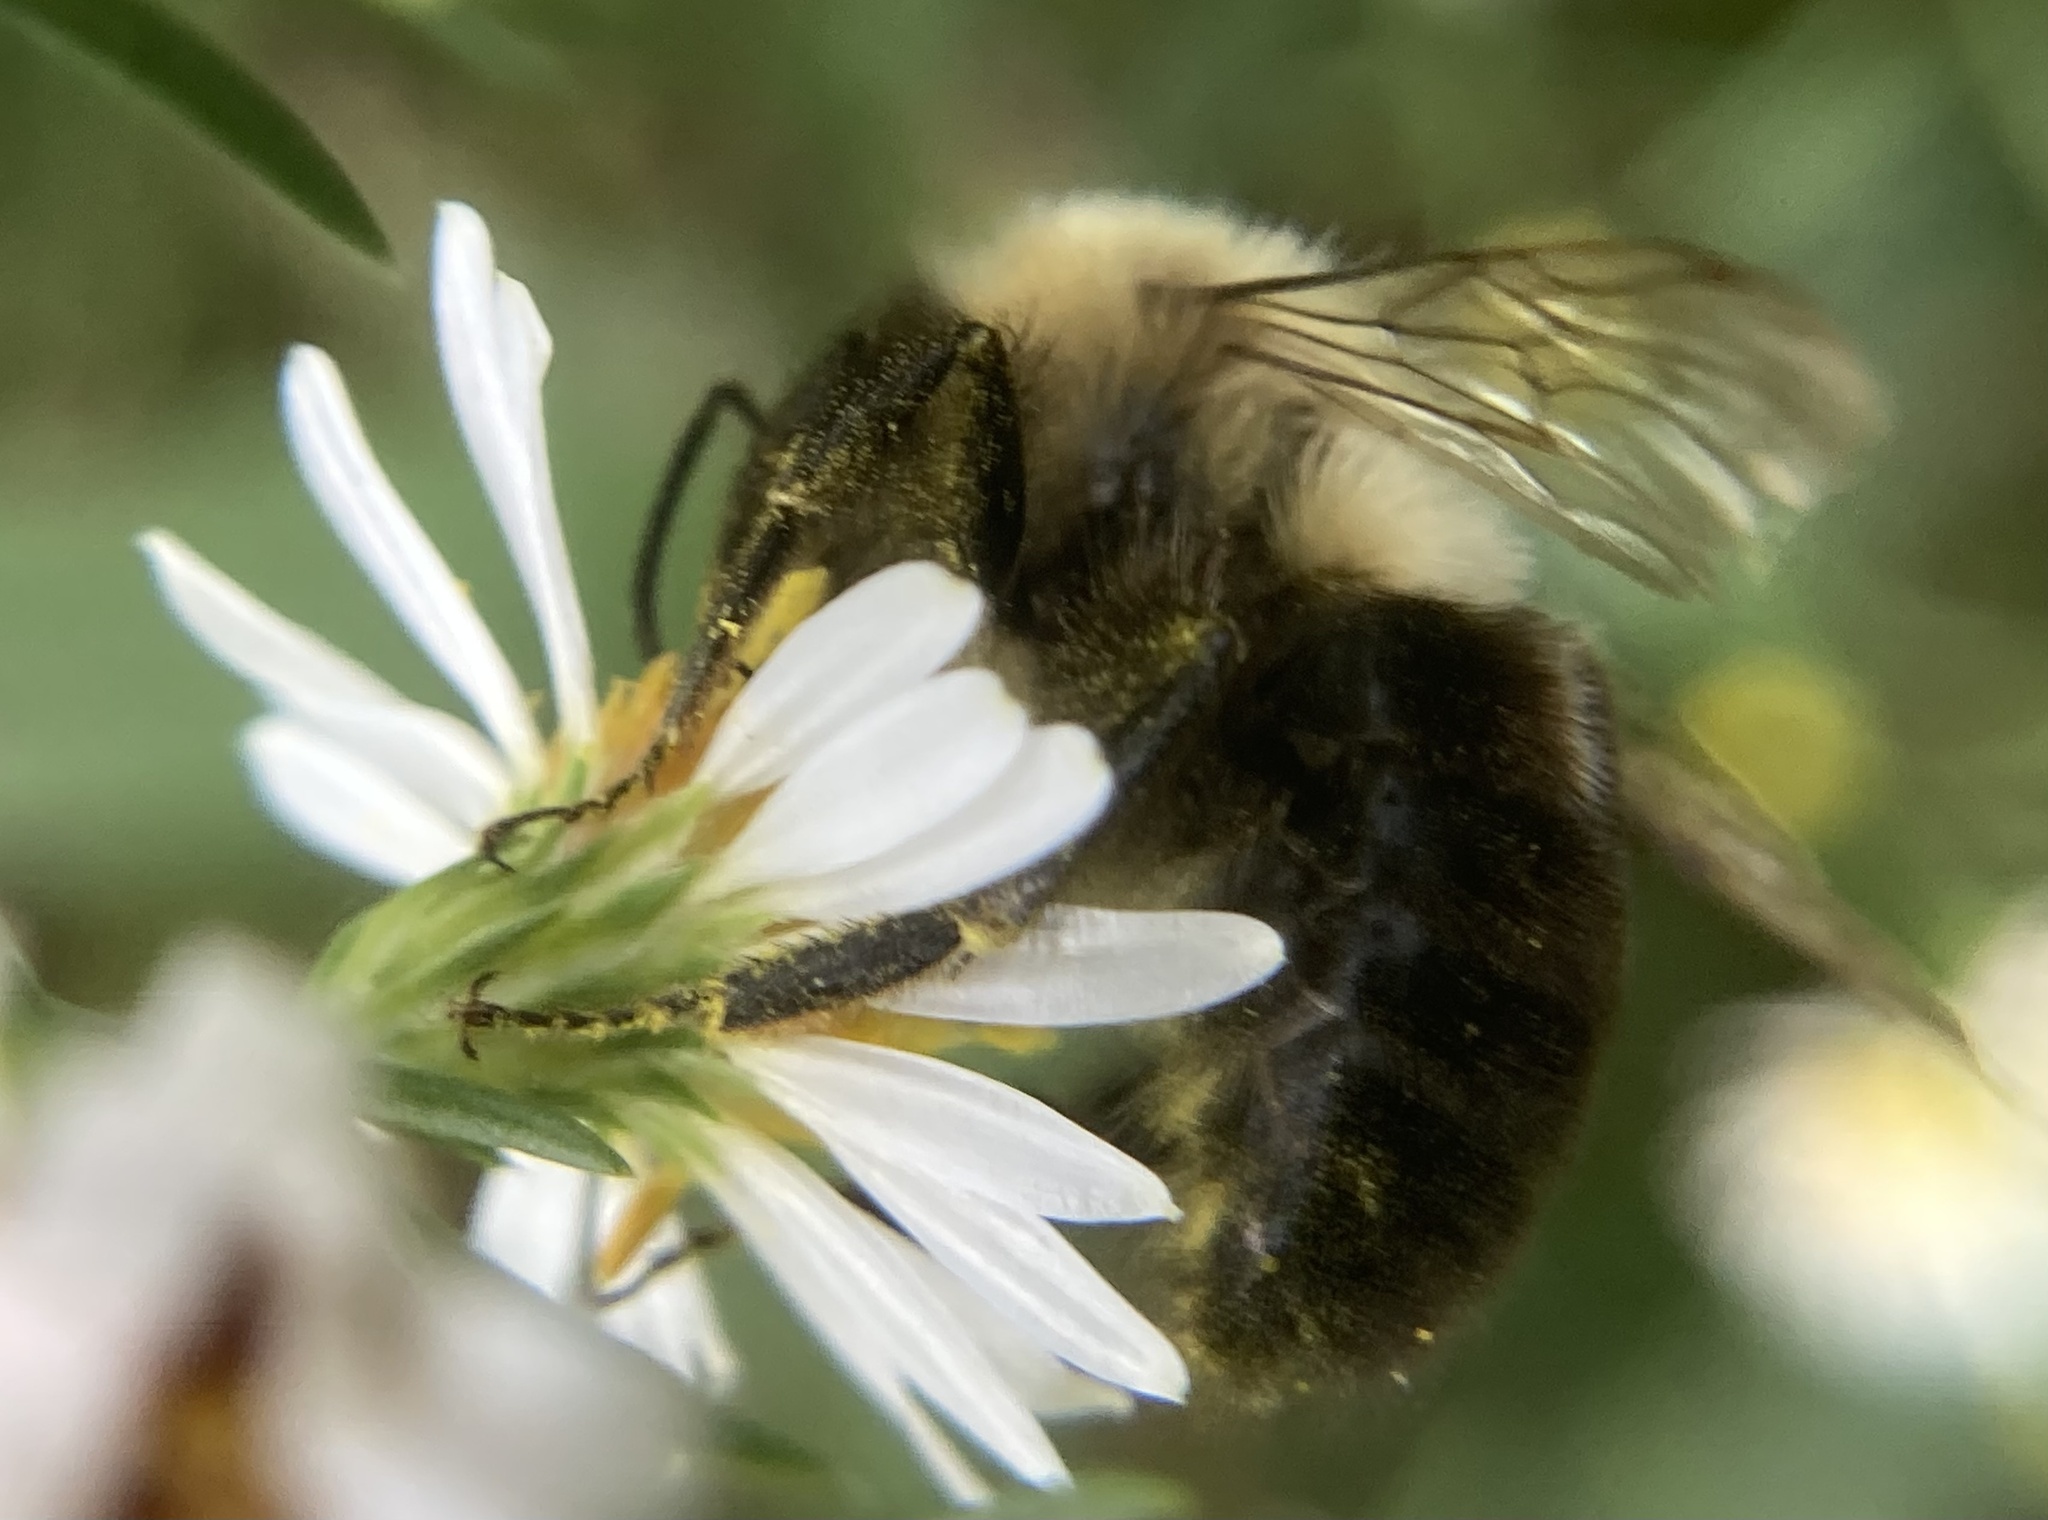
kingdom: Animalia
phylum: Arthropoda
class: Insecta
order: Hymenoptera
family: Apidae
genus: Bombus
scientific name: Bombus impatiens
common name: Common eastern bumble bee
